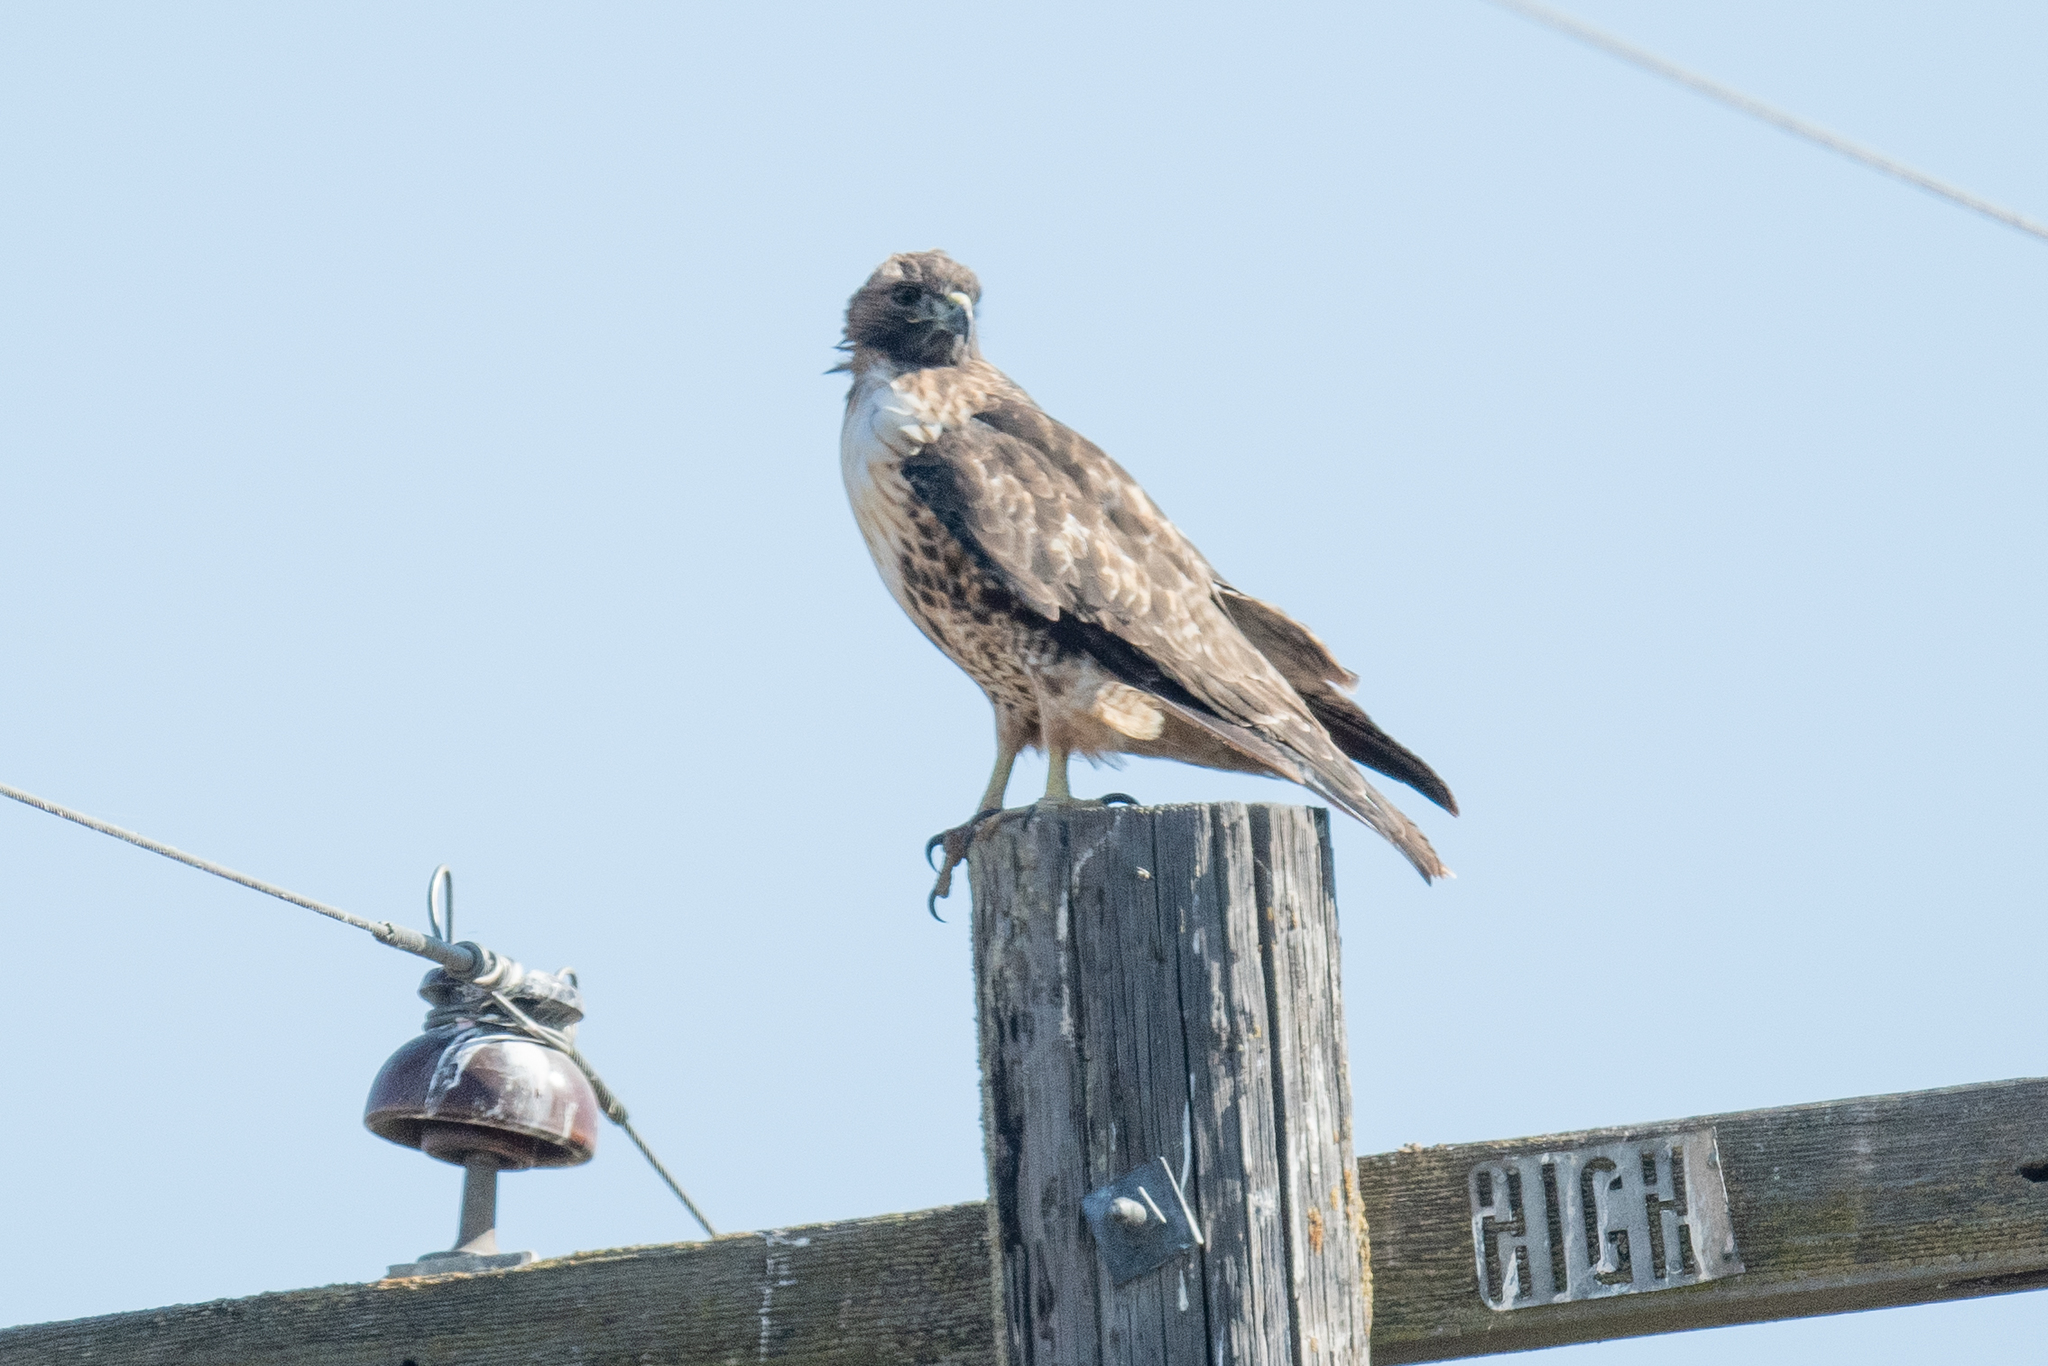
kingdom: Animalia
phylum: Chordata
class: Aves
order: Accipitriformes
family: Accipitridae
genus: Buteo
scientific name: Buteo jamaicensis
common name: Red-tailed hawk
